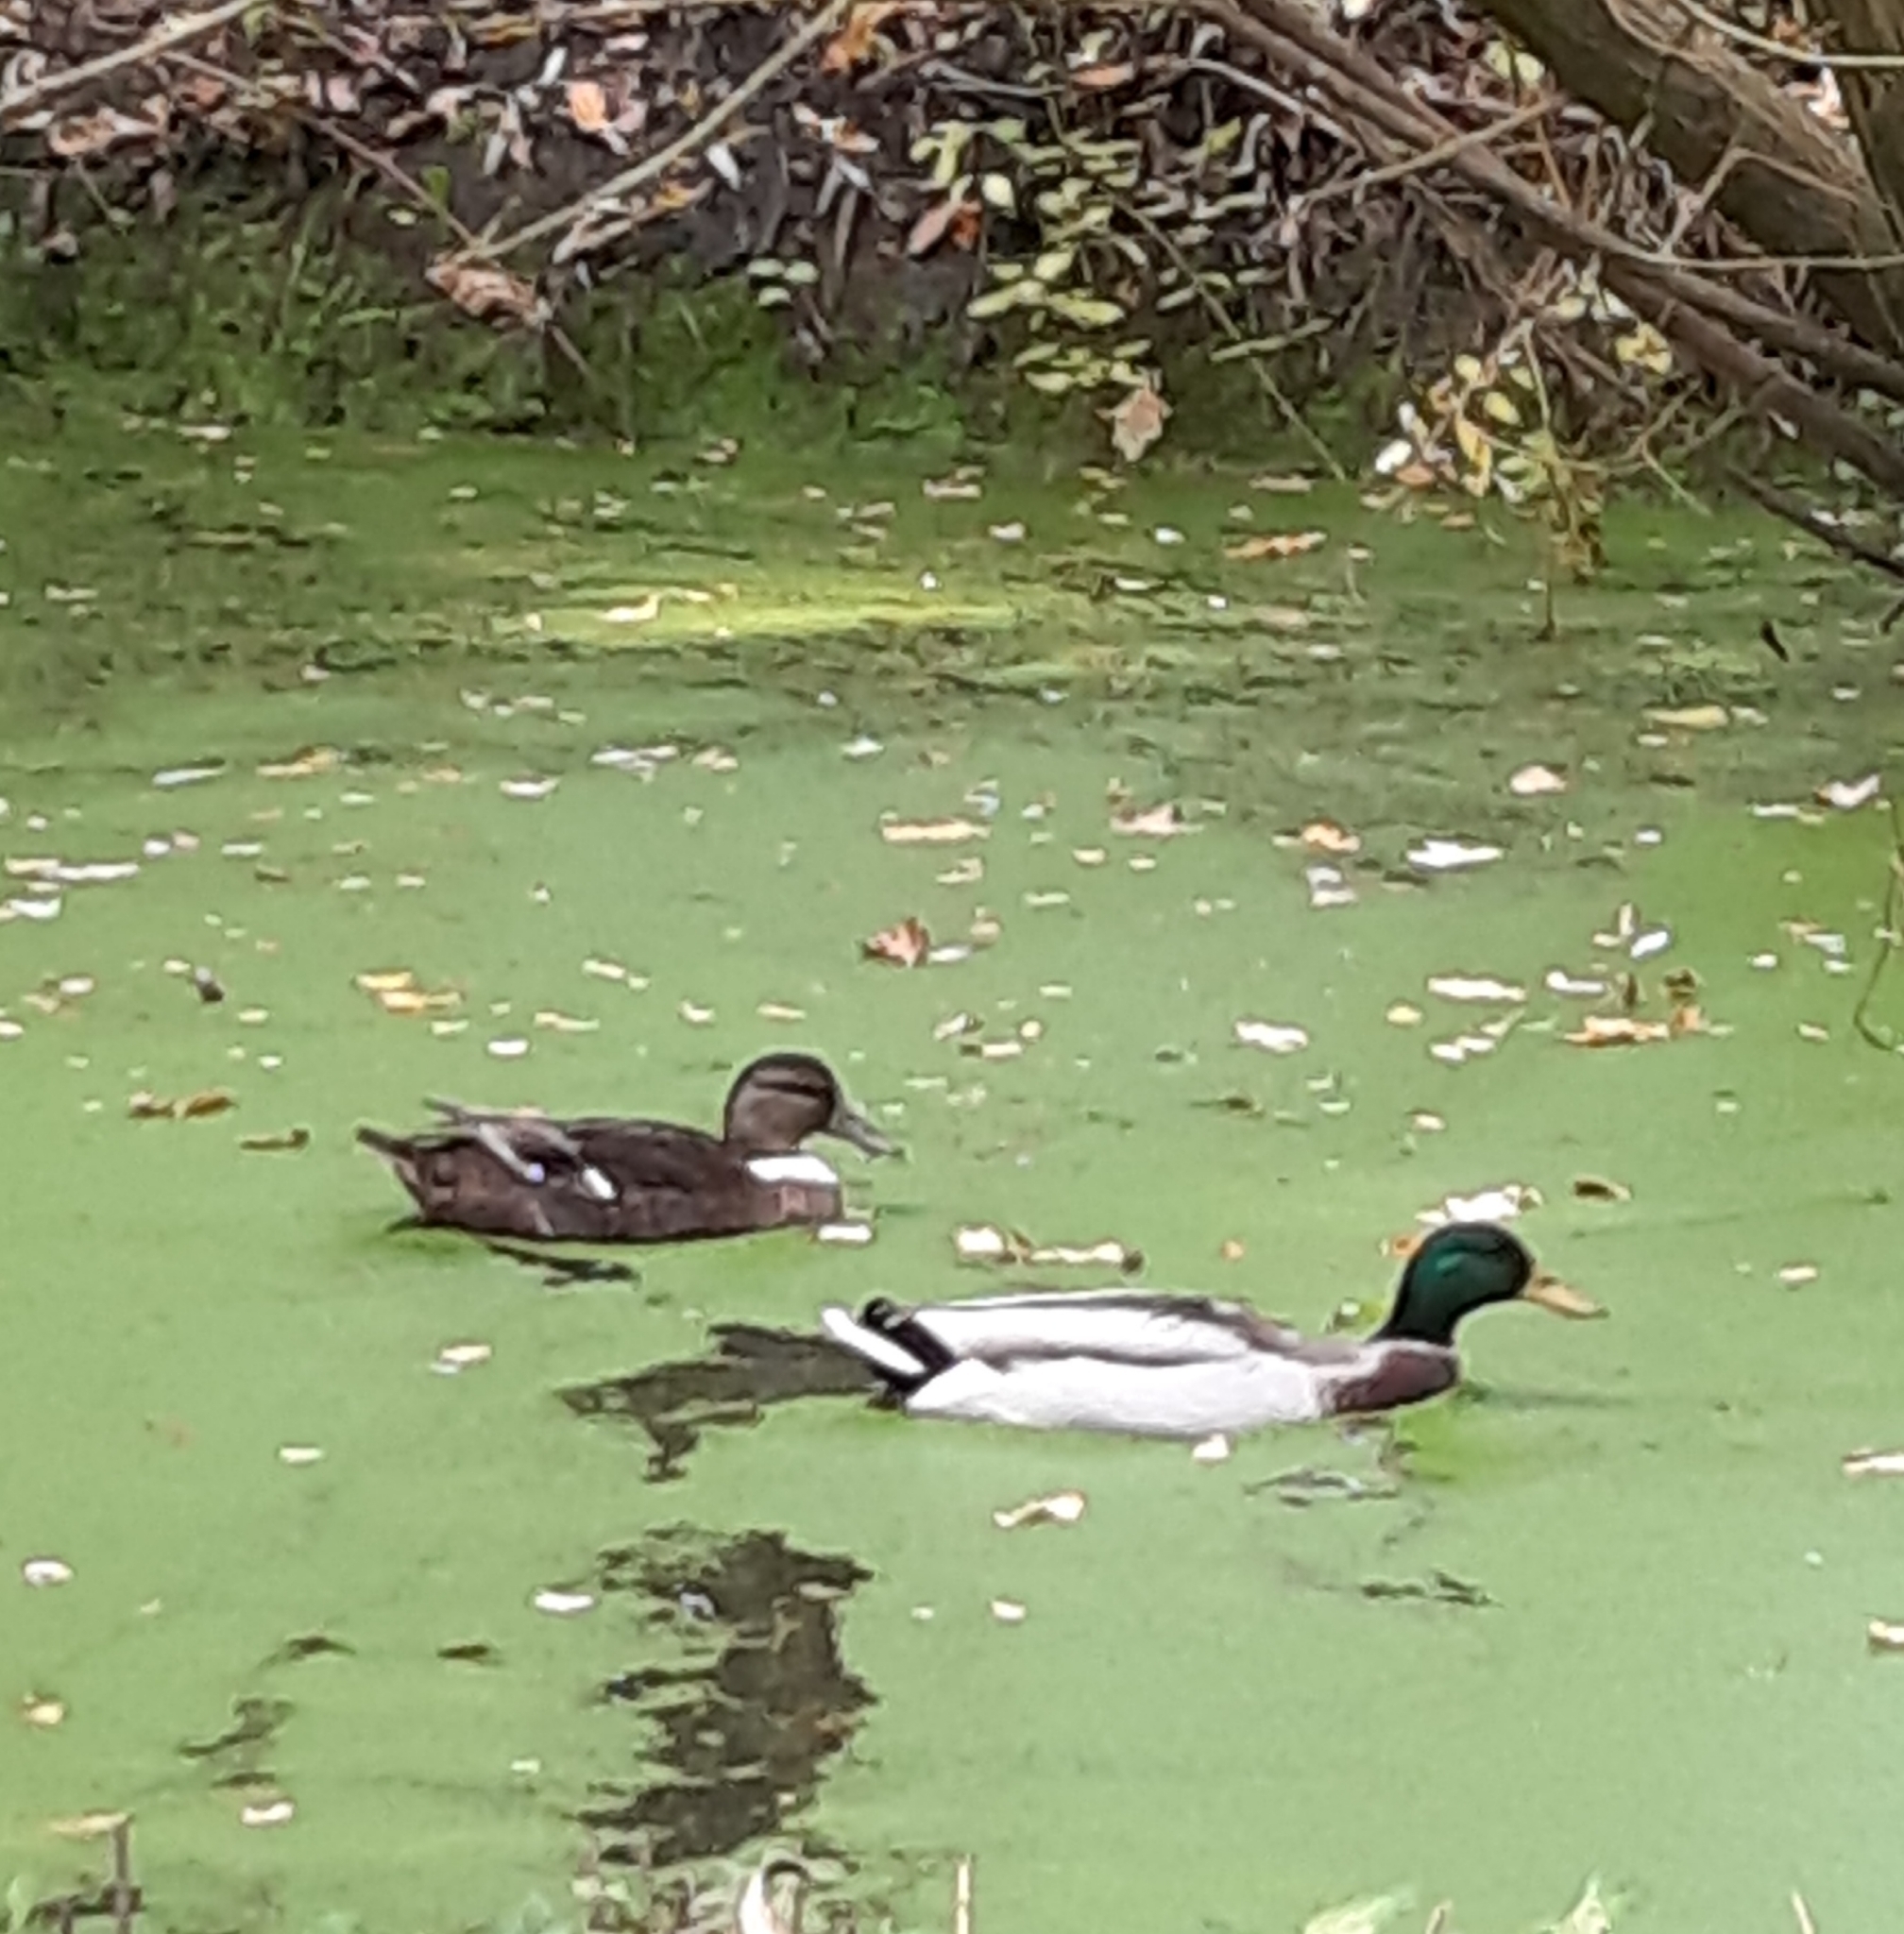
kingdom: Animalia
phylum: Chordata
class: Aves
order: Anseriformes
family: Anatidae
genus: Anas
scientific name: Anas platyrhynchos
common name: Mallard
